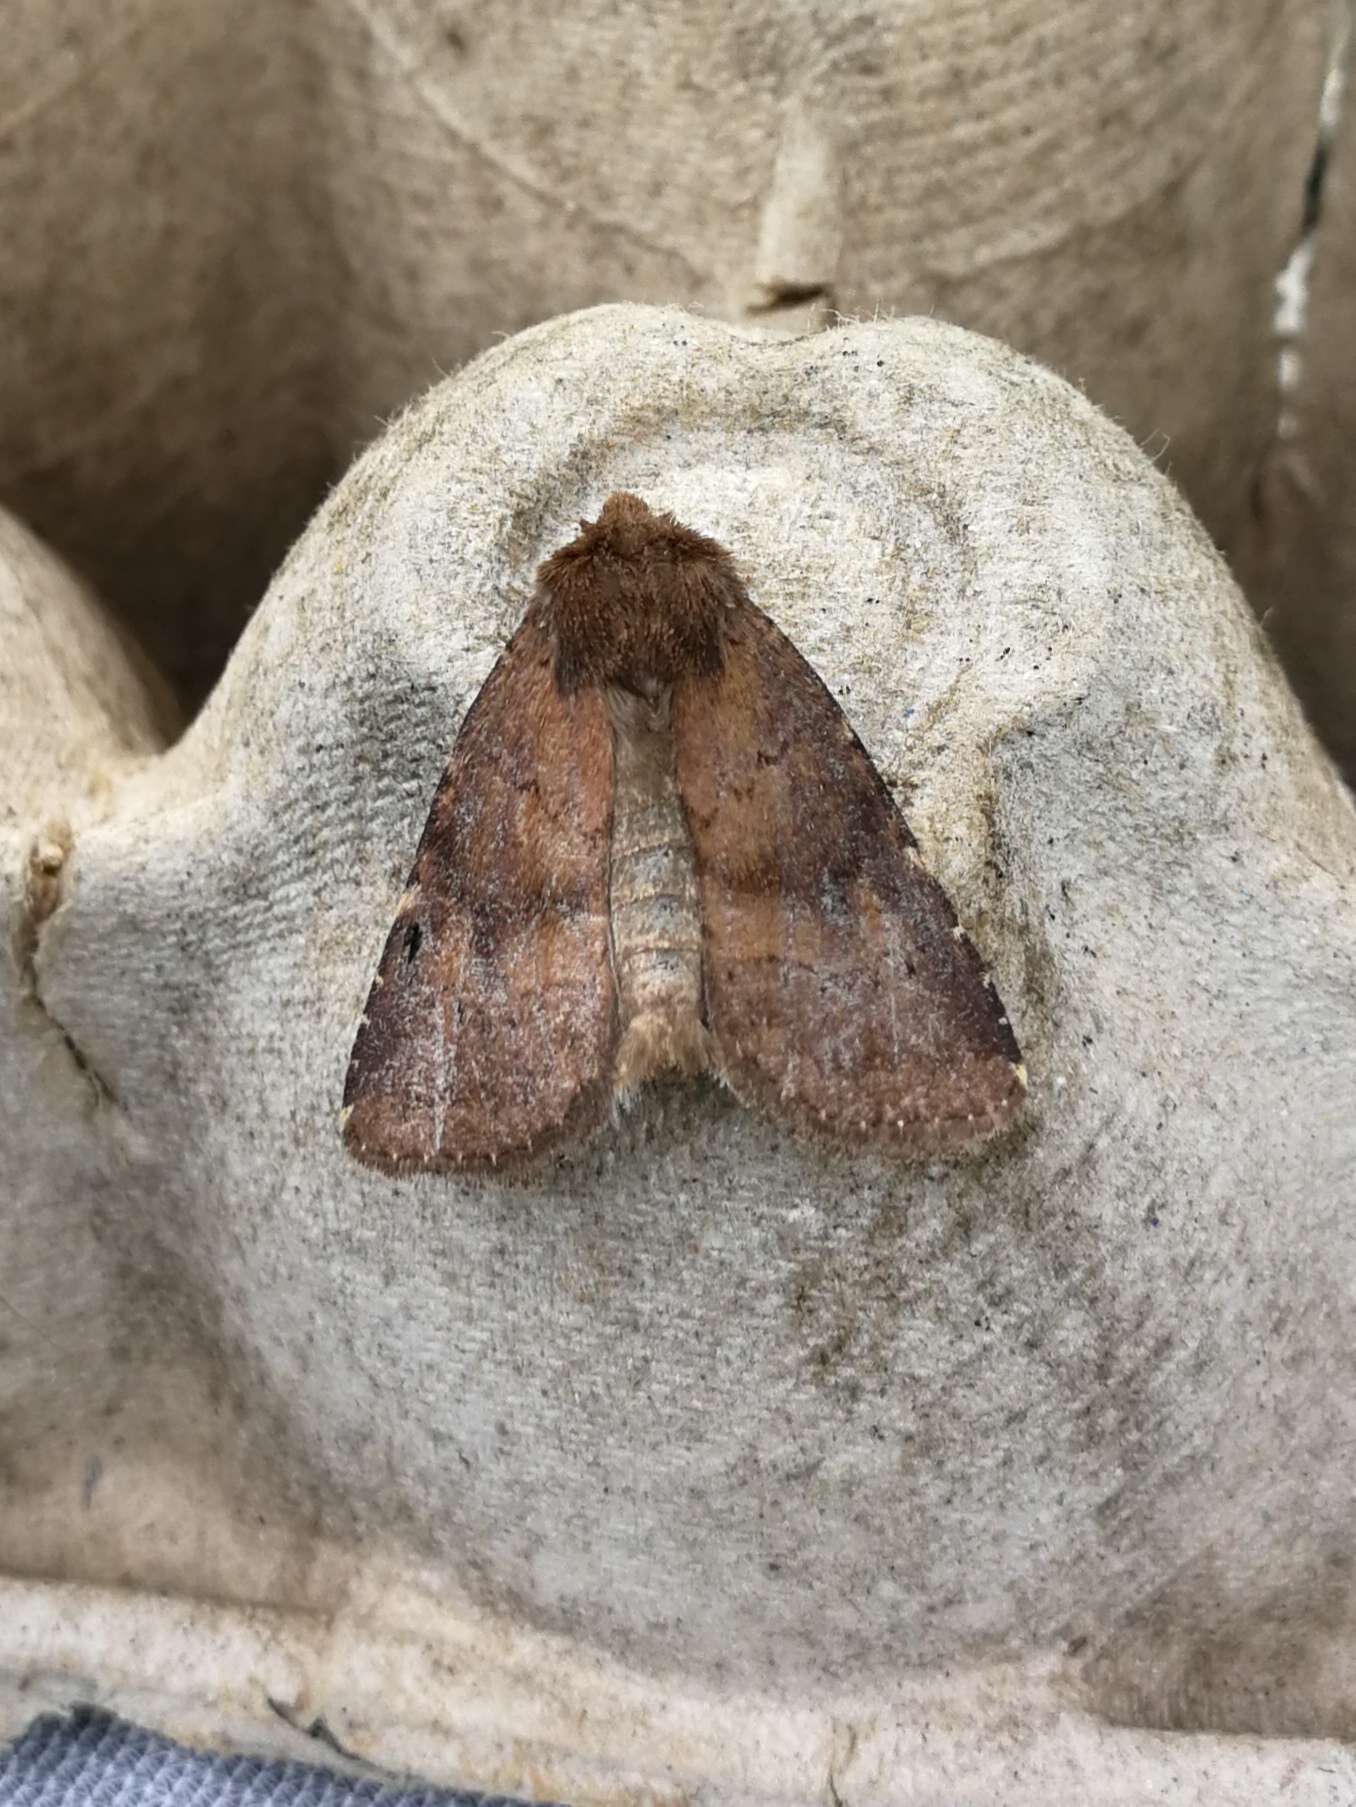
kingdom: Animalia
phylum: Arthropoda
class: Insecta
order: Lepidoptera
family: Noctuidae
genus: Charanyca
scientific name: Charanyca ferruginea
